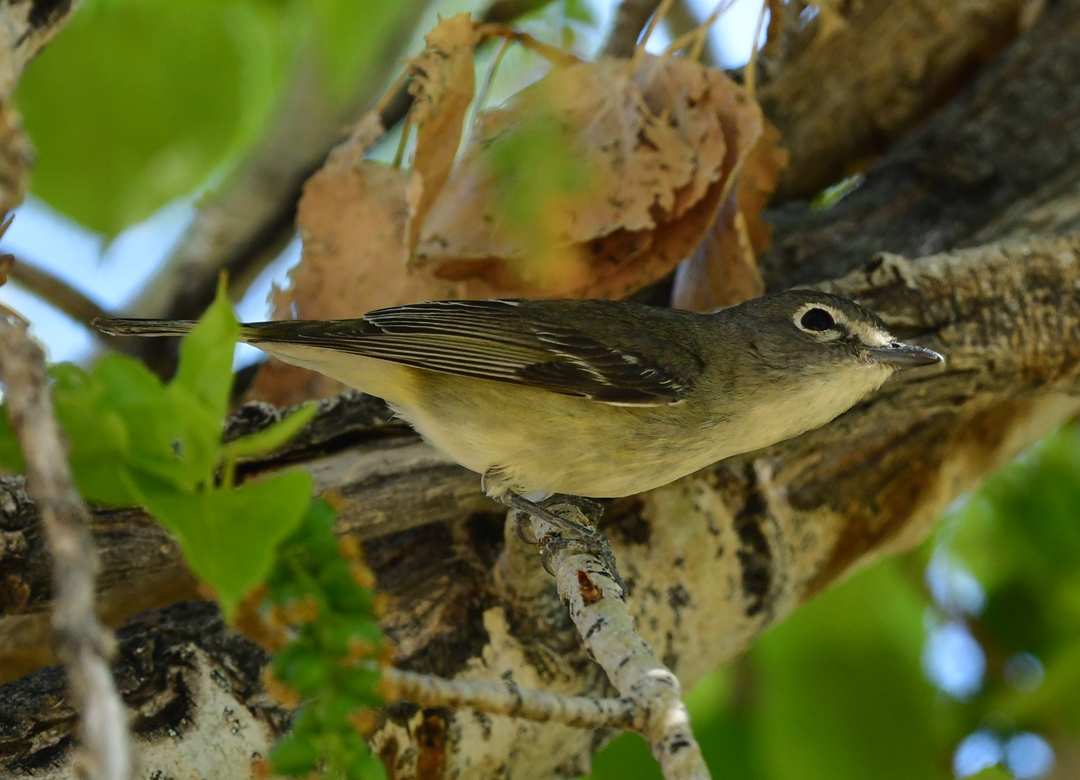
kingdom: Animalia
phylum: Chordata
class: Aves
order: Passeriformes
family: Vireonidae
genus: Vireo
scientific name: Vireo cassinii
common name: Cassin's vireo
